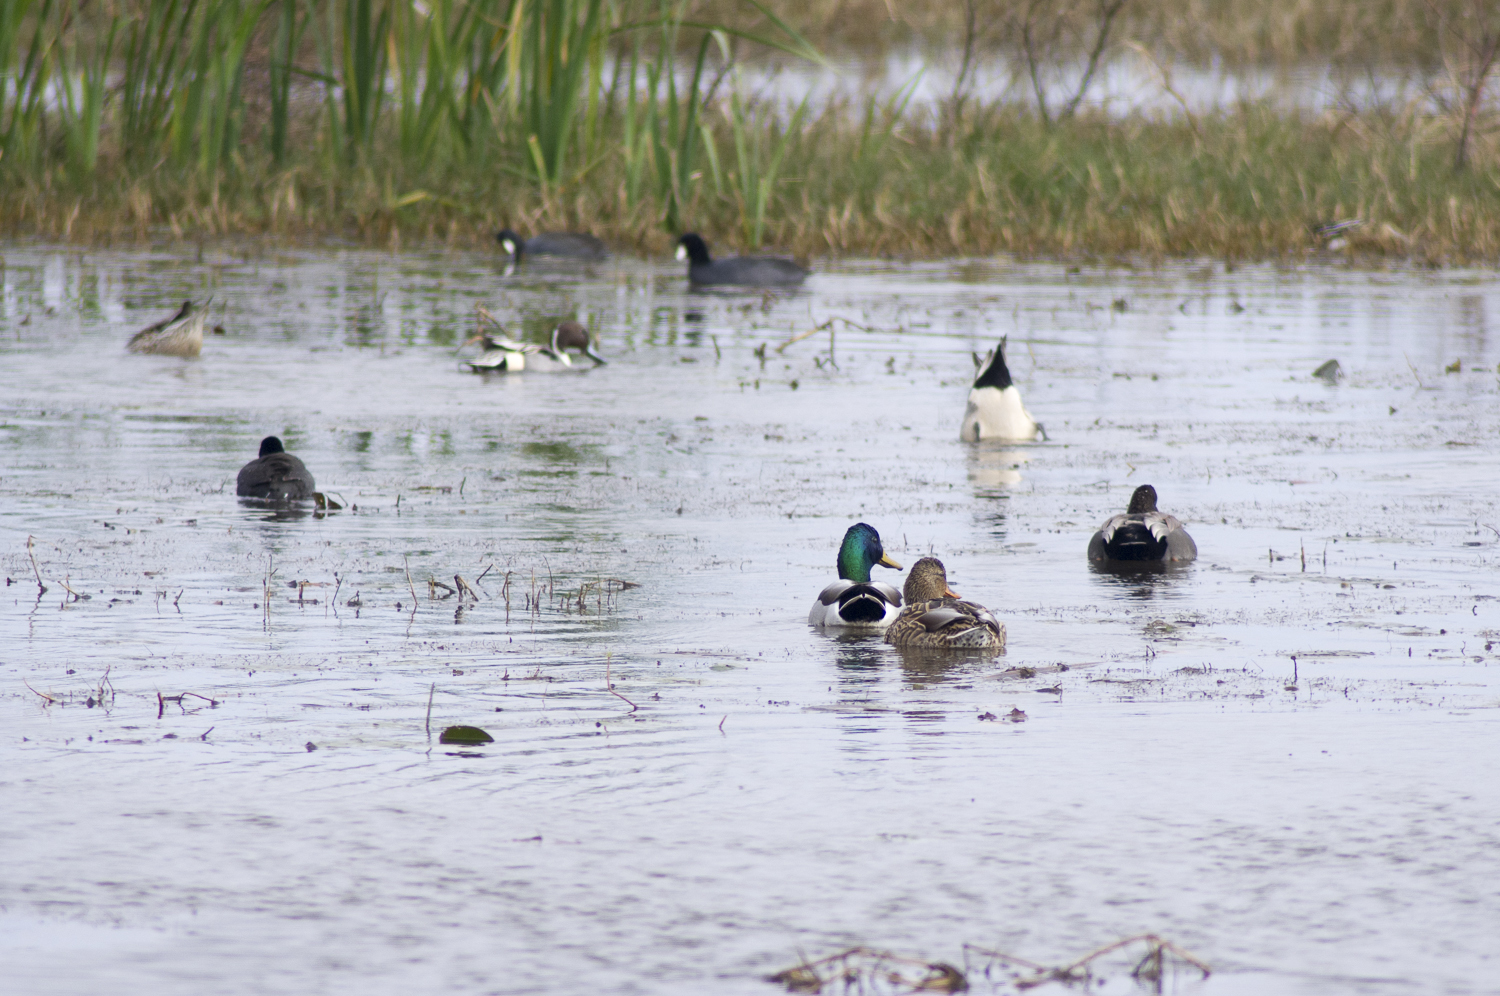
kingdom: Animalia
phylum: Chordata
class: Aves
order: Anseriformes
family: Anatidae
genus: Anas
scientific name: Anas acuta
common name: Northern pintail
